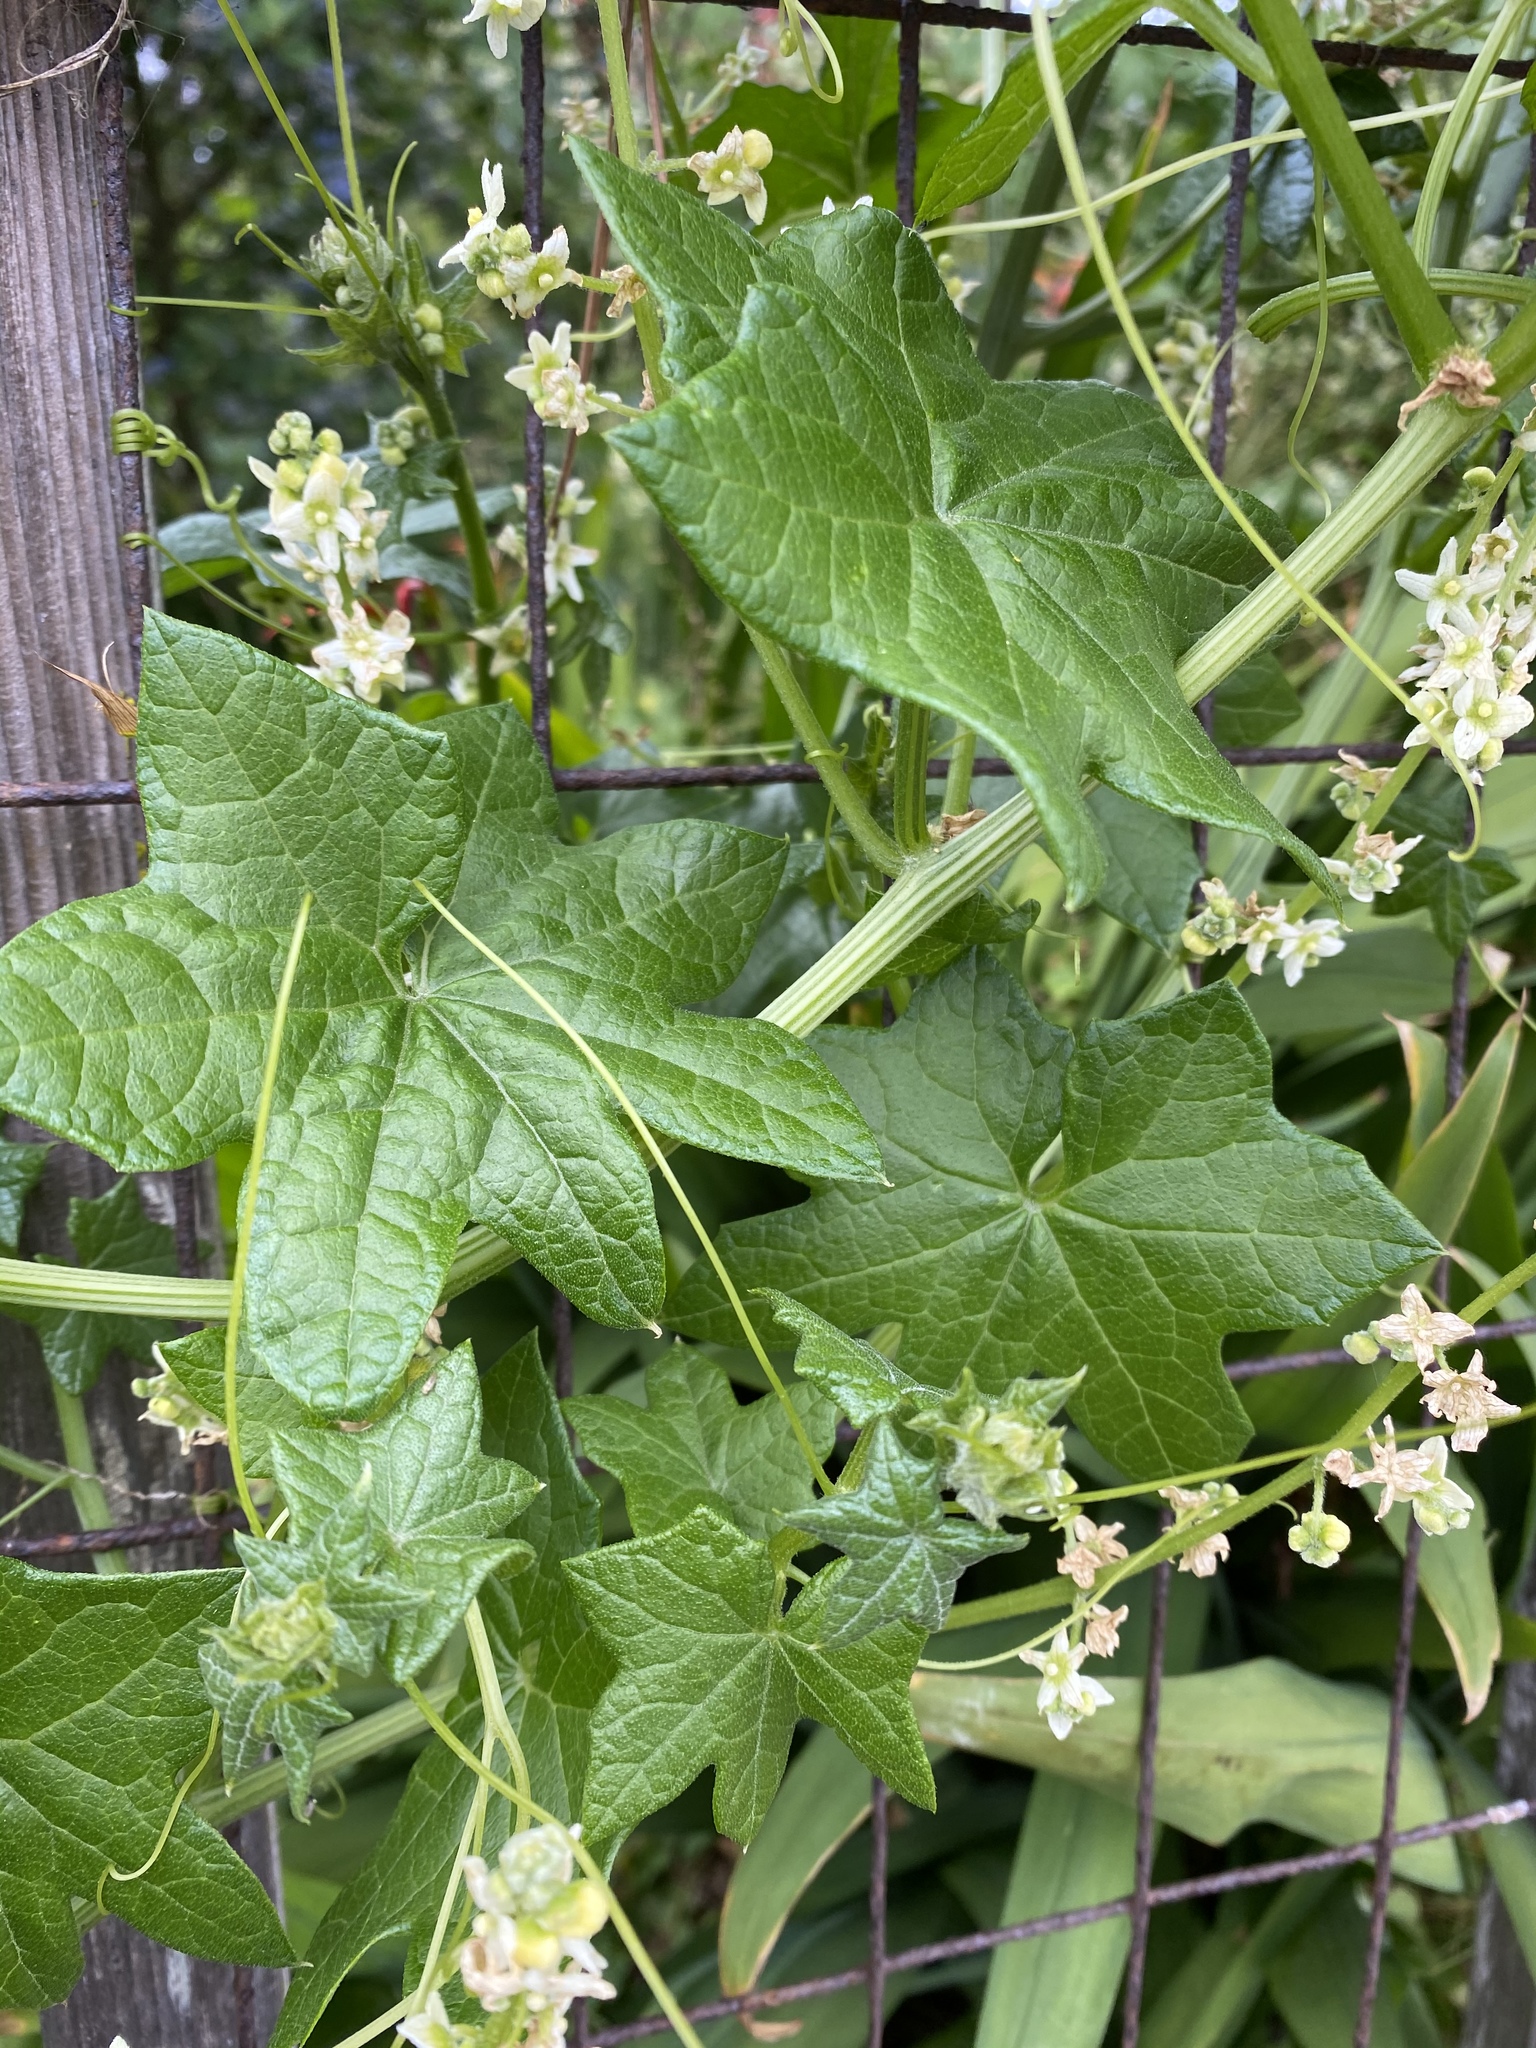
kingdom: Plantae
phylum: Tracheophyta
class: Magnoliopsida
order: Cucurbitales
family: Cucurbitaceae
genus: Marah
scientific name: Marah fabacea
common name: California manroot
